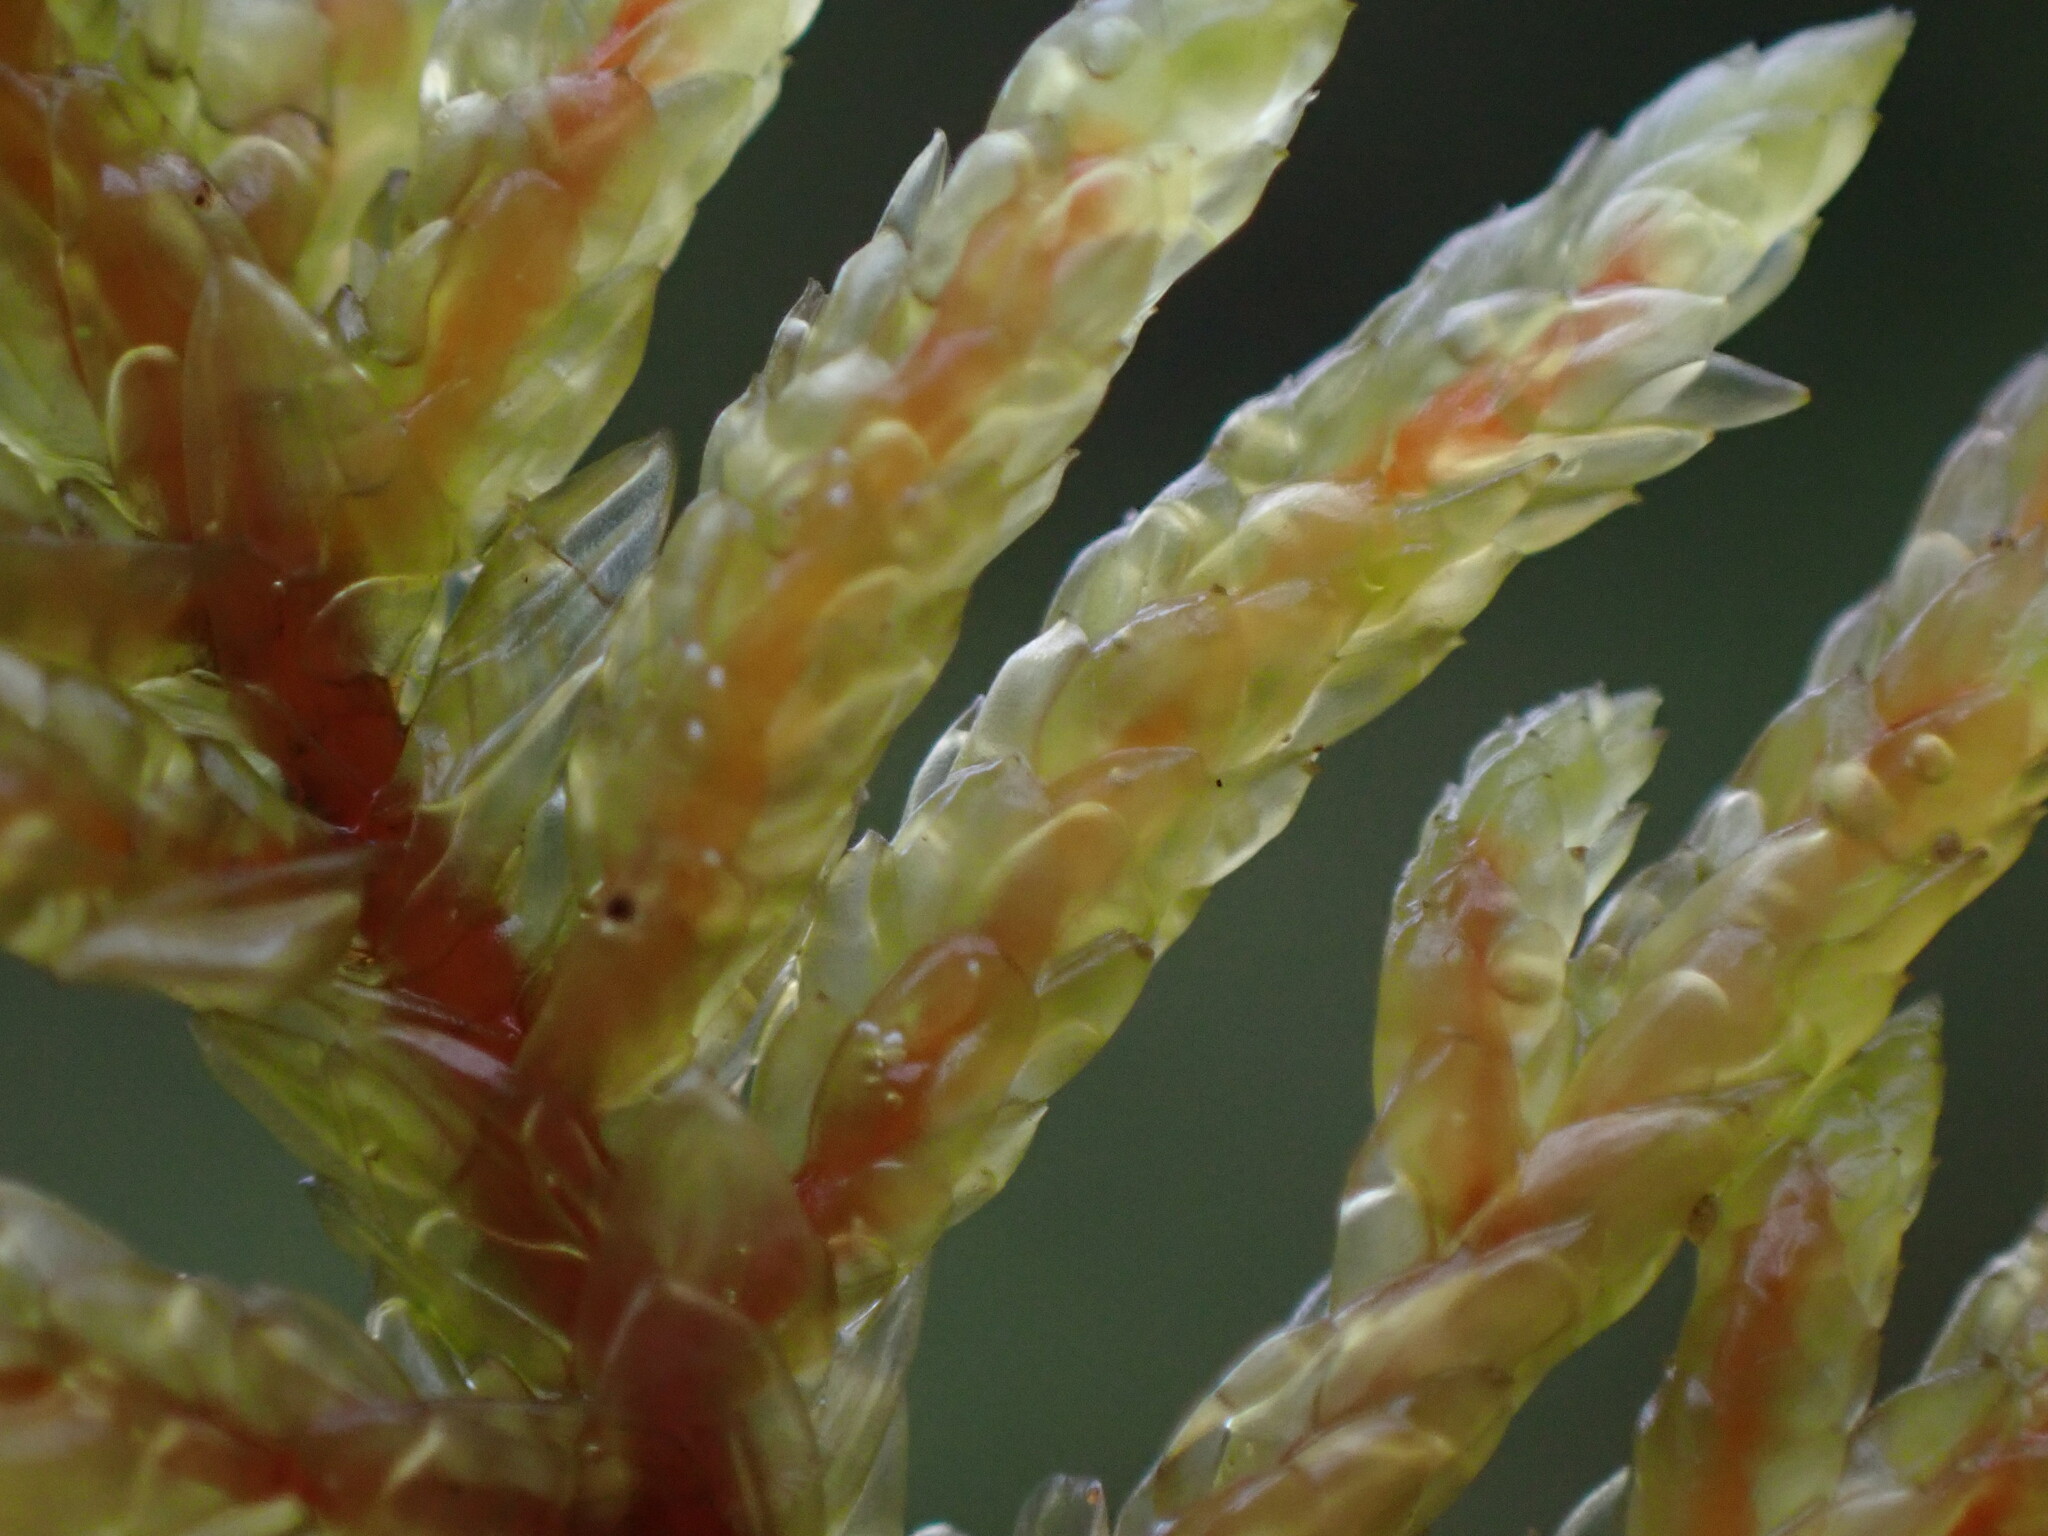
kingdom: Plantae
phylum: Bryophyta
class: Bryopsida
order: Hypnales
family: Hylocomiaceae
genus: Pleurozium
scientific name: Pleurozium schreberi
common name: Red-stemmed feather moss
